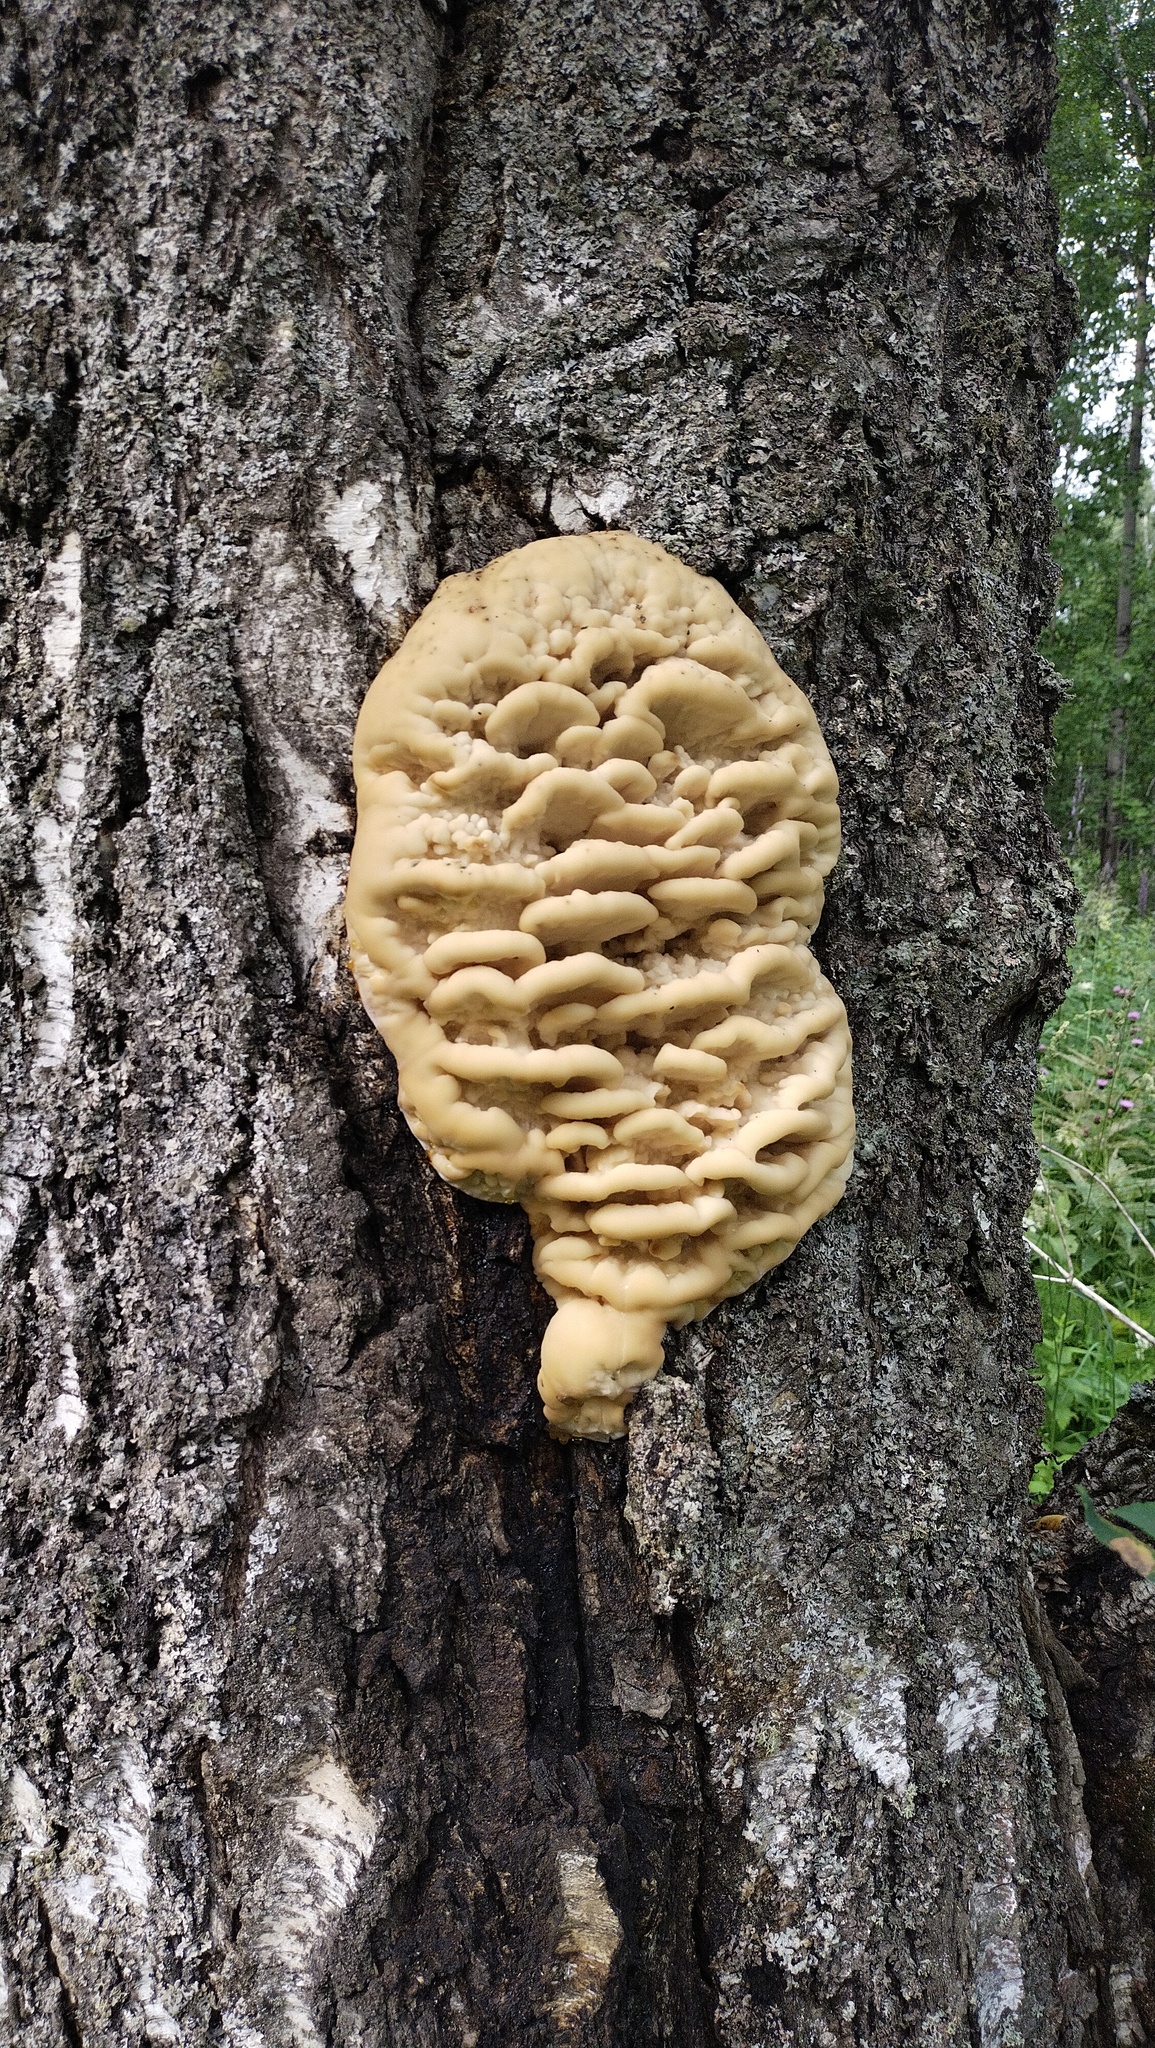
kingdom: Fungi
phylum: Basidiomycota
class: Agaricomycetes
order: Polyporales
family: Meruliaceae
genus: Climacodon
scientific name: Climacodon septentrionalis
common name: Northern tooth
